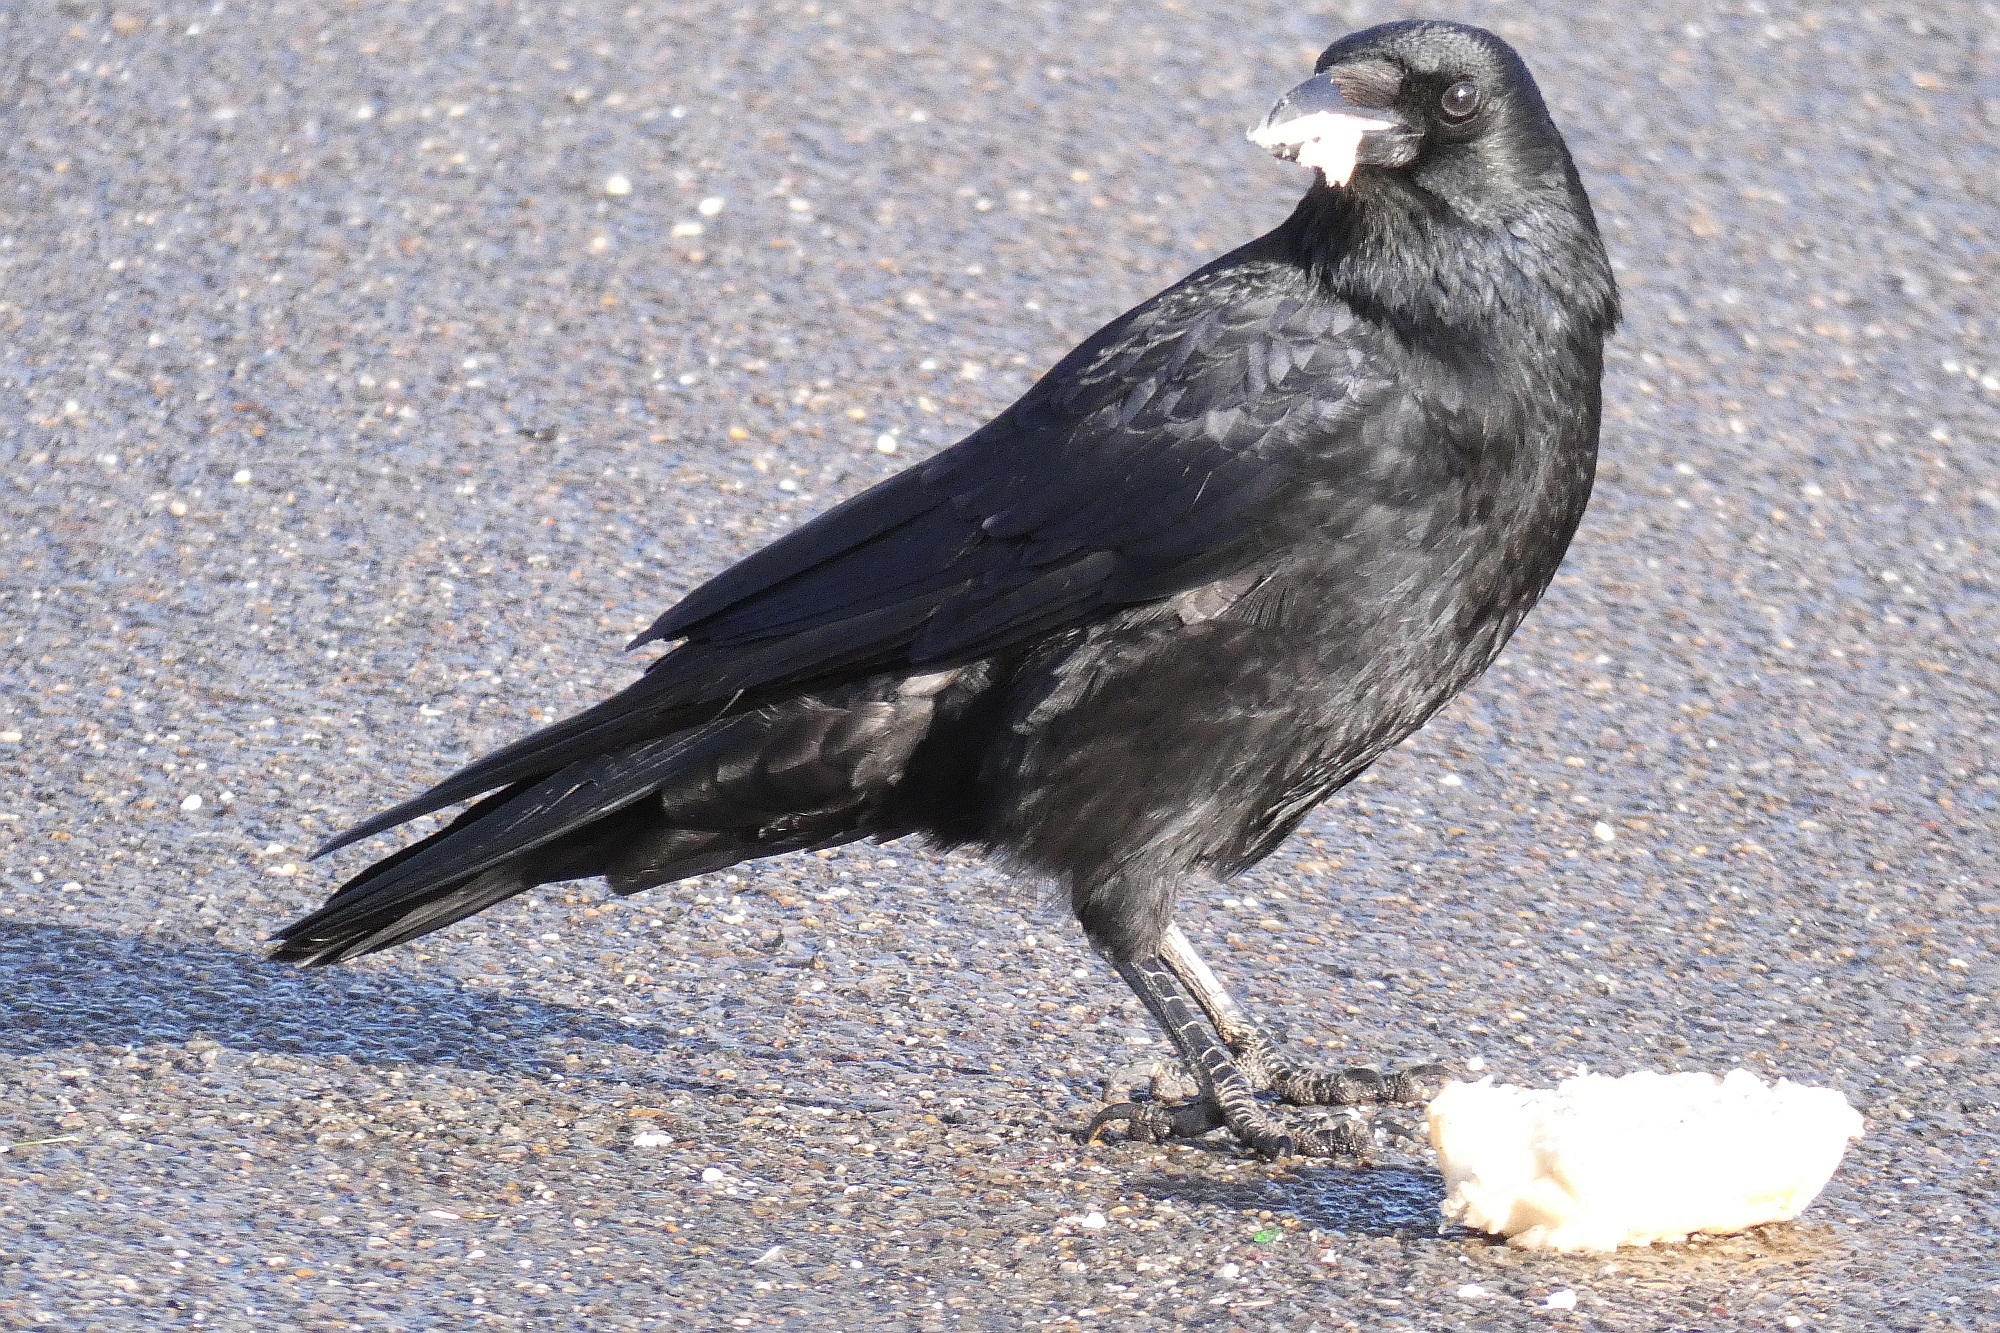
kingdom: Animalia
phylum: Chordata
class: Aves
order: Passeriformes
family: Corvidae
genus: Corvus
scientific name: Corvus corone
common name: Carrion crow
